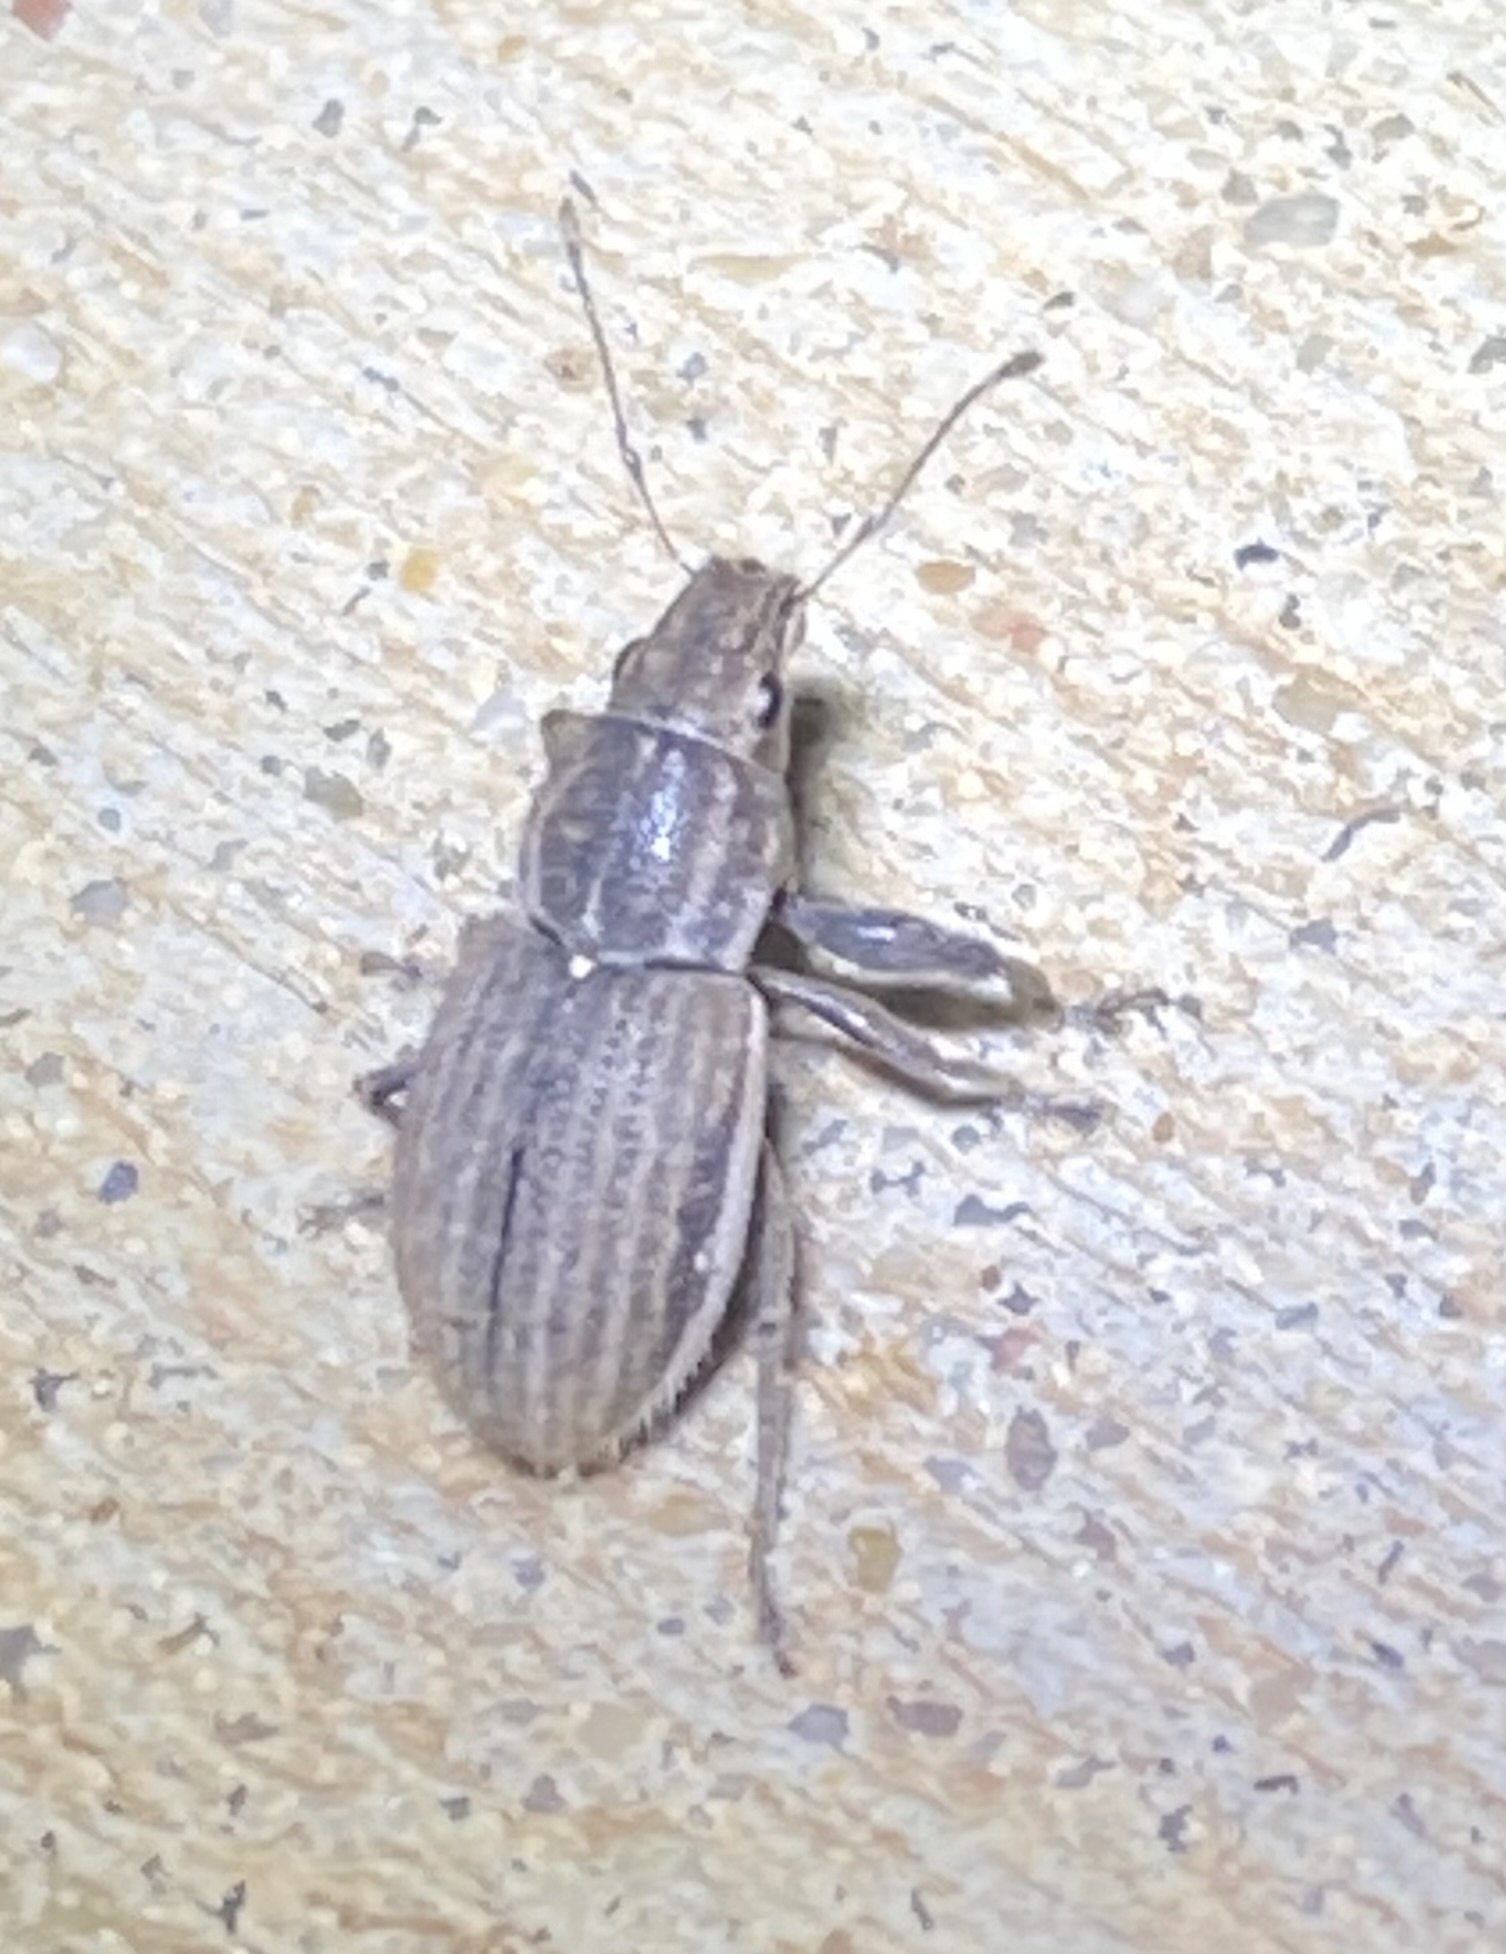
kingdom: Animalia
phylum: Arthropoda
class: Insecta
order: Coleoptera
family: Curculionidae
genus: Naupactus
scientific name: Naupactus leucoloma
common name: Whitefringed beetle
